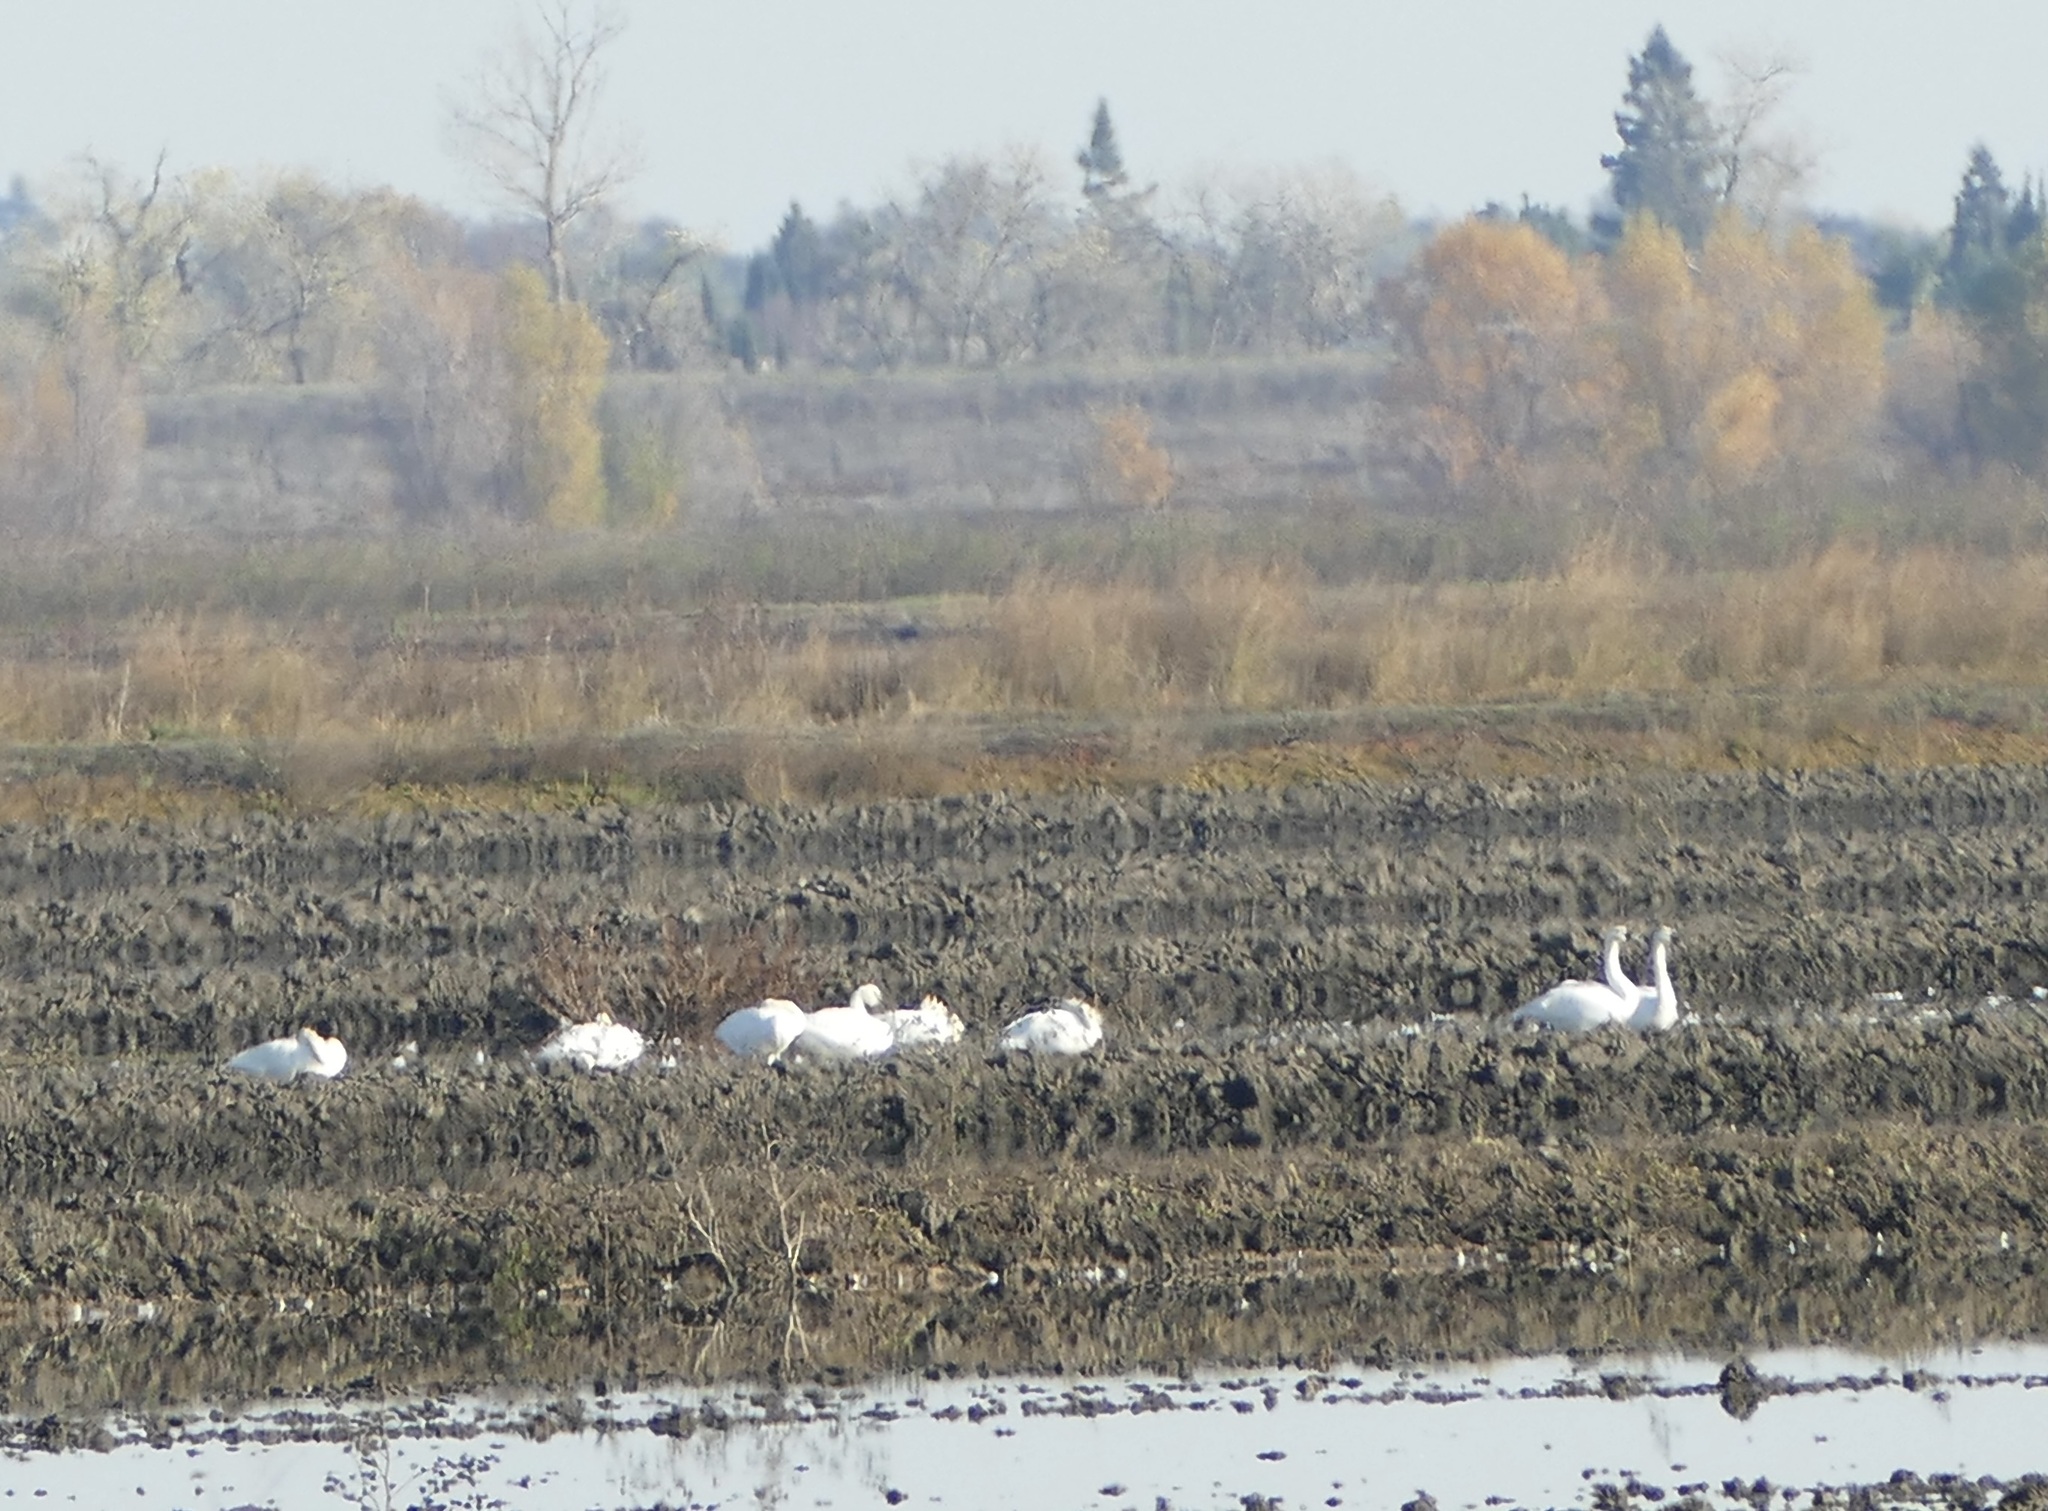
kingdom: Animalia
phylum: Chordata
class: Aves
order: Anseriformes
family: Anatidae
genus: Cygnus
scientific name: Cygnus columbianus
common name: Tundra swan
